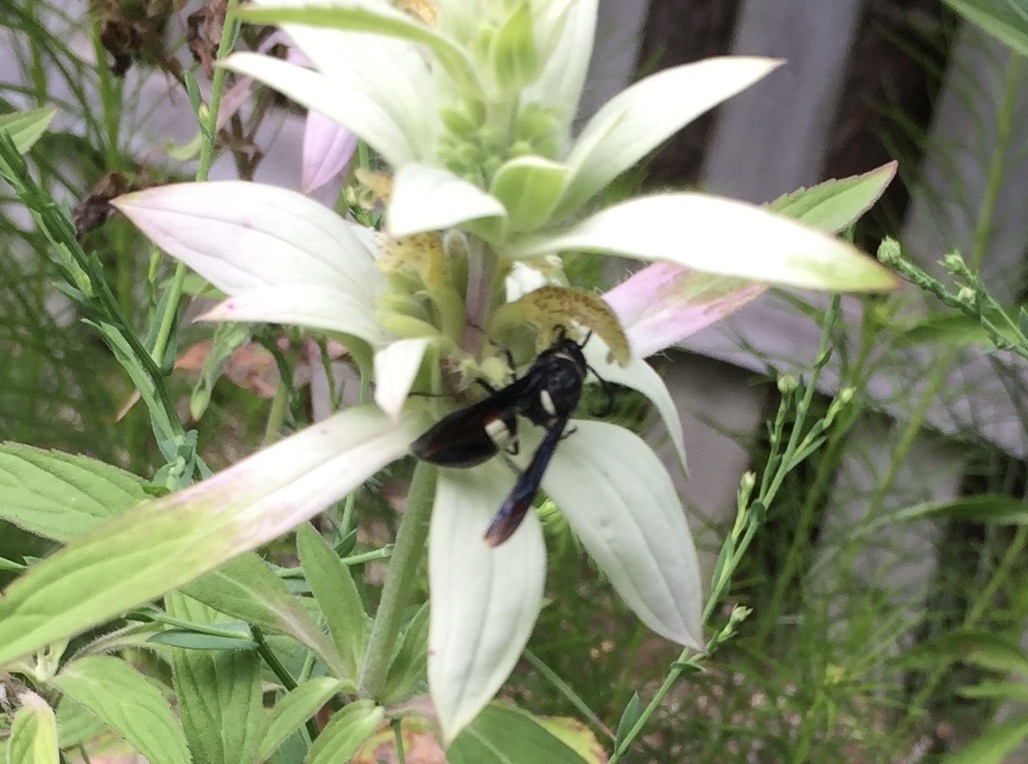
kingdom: Animalia
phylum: Arthropoda
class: Insecta
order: Hymenoptera
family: Eumenidae
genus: Monobia
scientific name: Monobia quadridens
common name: Four-toothed mason wasp
